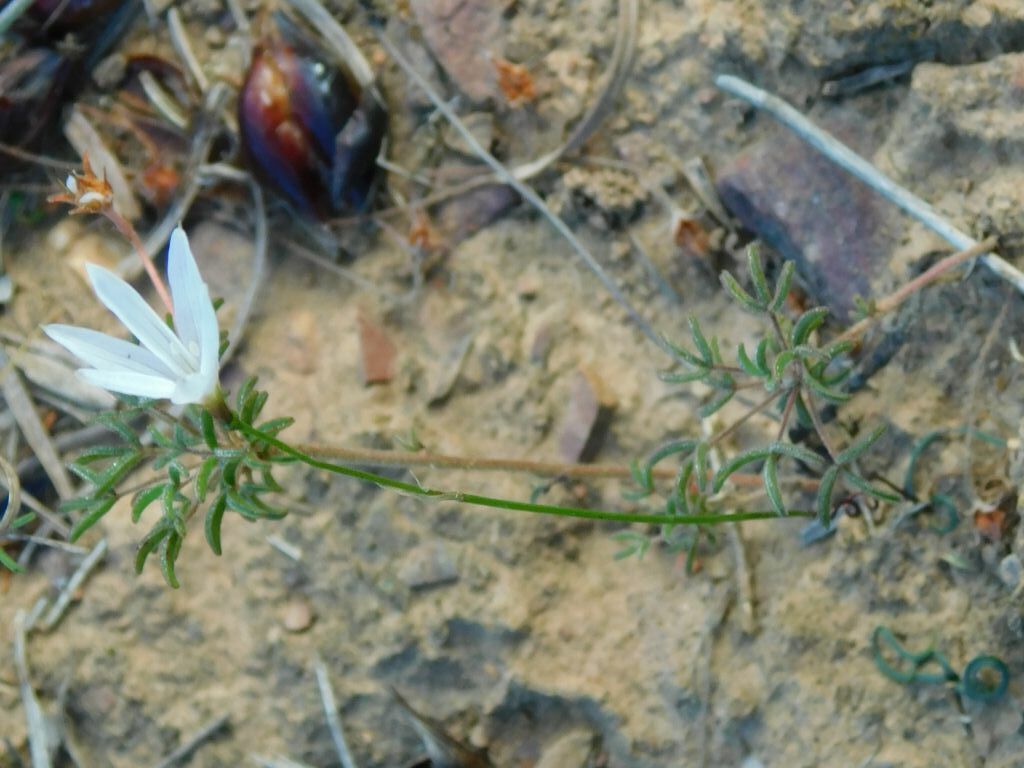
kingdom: Plantae
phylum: Tracheophyta
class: Liliopsida
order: Asparagales
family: Amaryllidaceae
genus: Strumaria
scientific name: Strumaria spiralis
